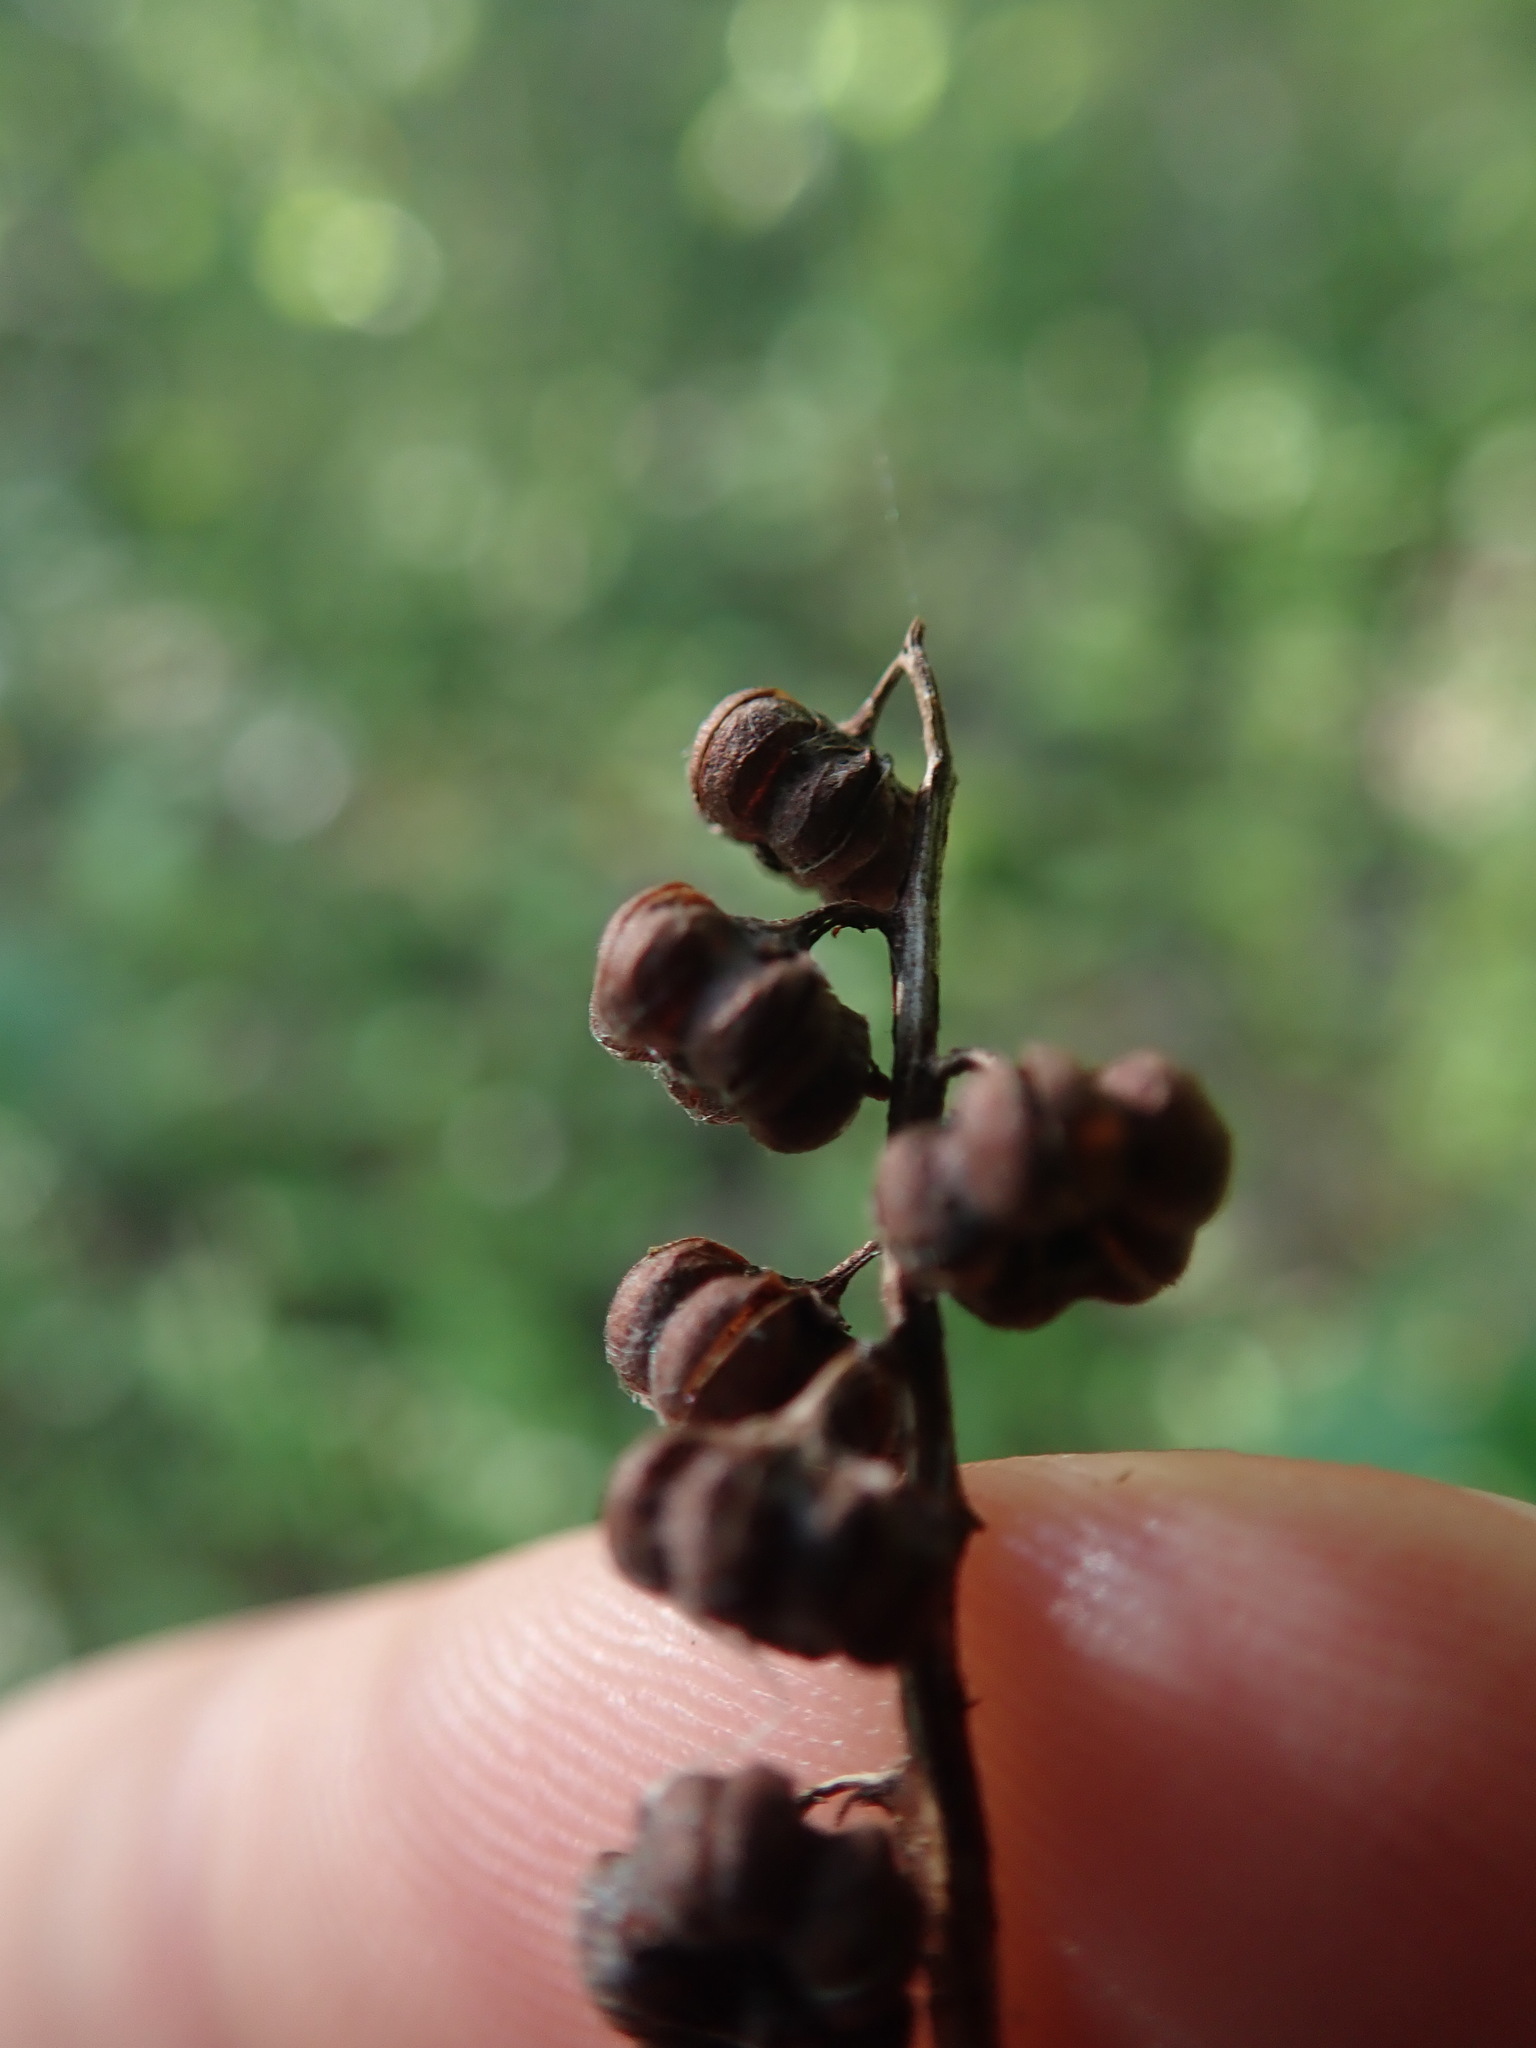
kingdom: Plantae
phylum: Tracheophyta
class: Magnoliopsida
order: Ericales
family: Ericaceae
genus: Pyrola
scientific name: Pyrola minor
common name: Common wintergreen
